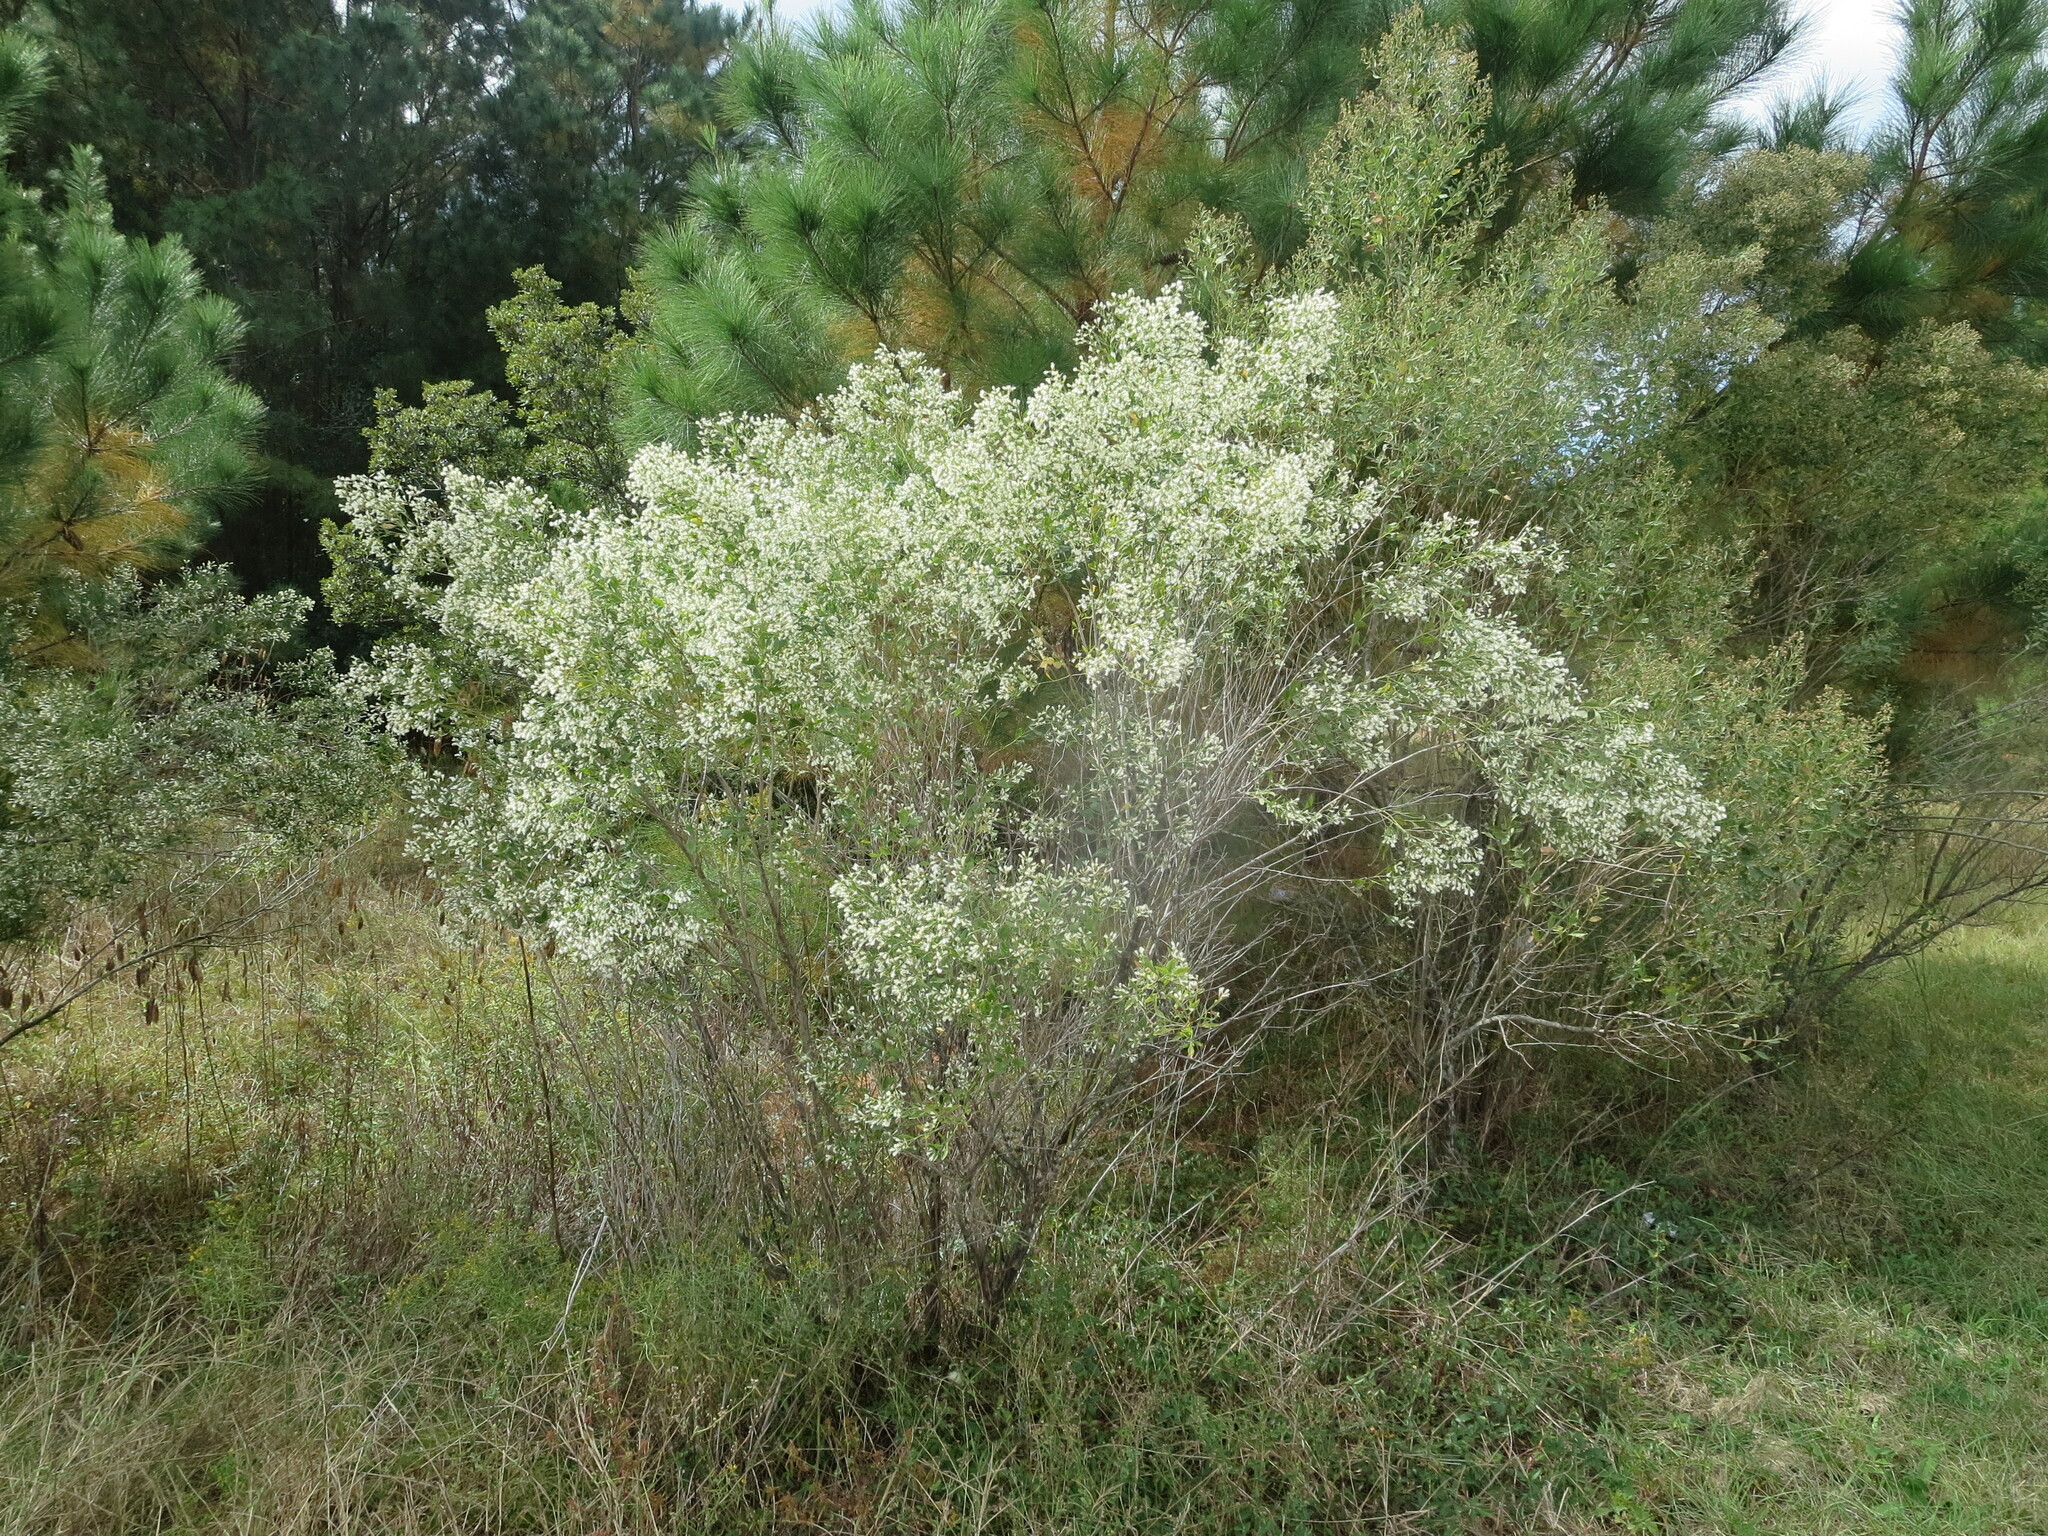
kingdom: Plantae
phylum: Tracheophyta
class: Magnoliopsida
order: Asterales
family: Asteraceae
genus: Baccharis
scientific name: Baccharis halimifolia
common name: Eastern baccharis
